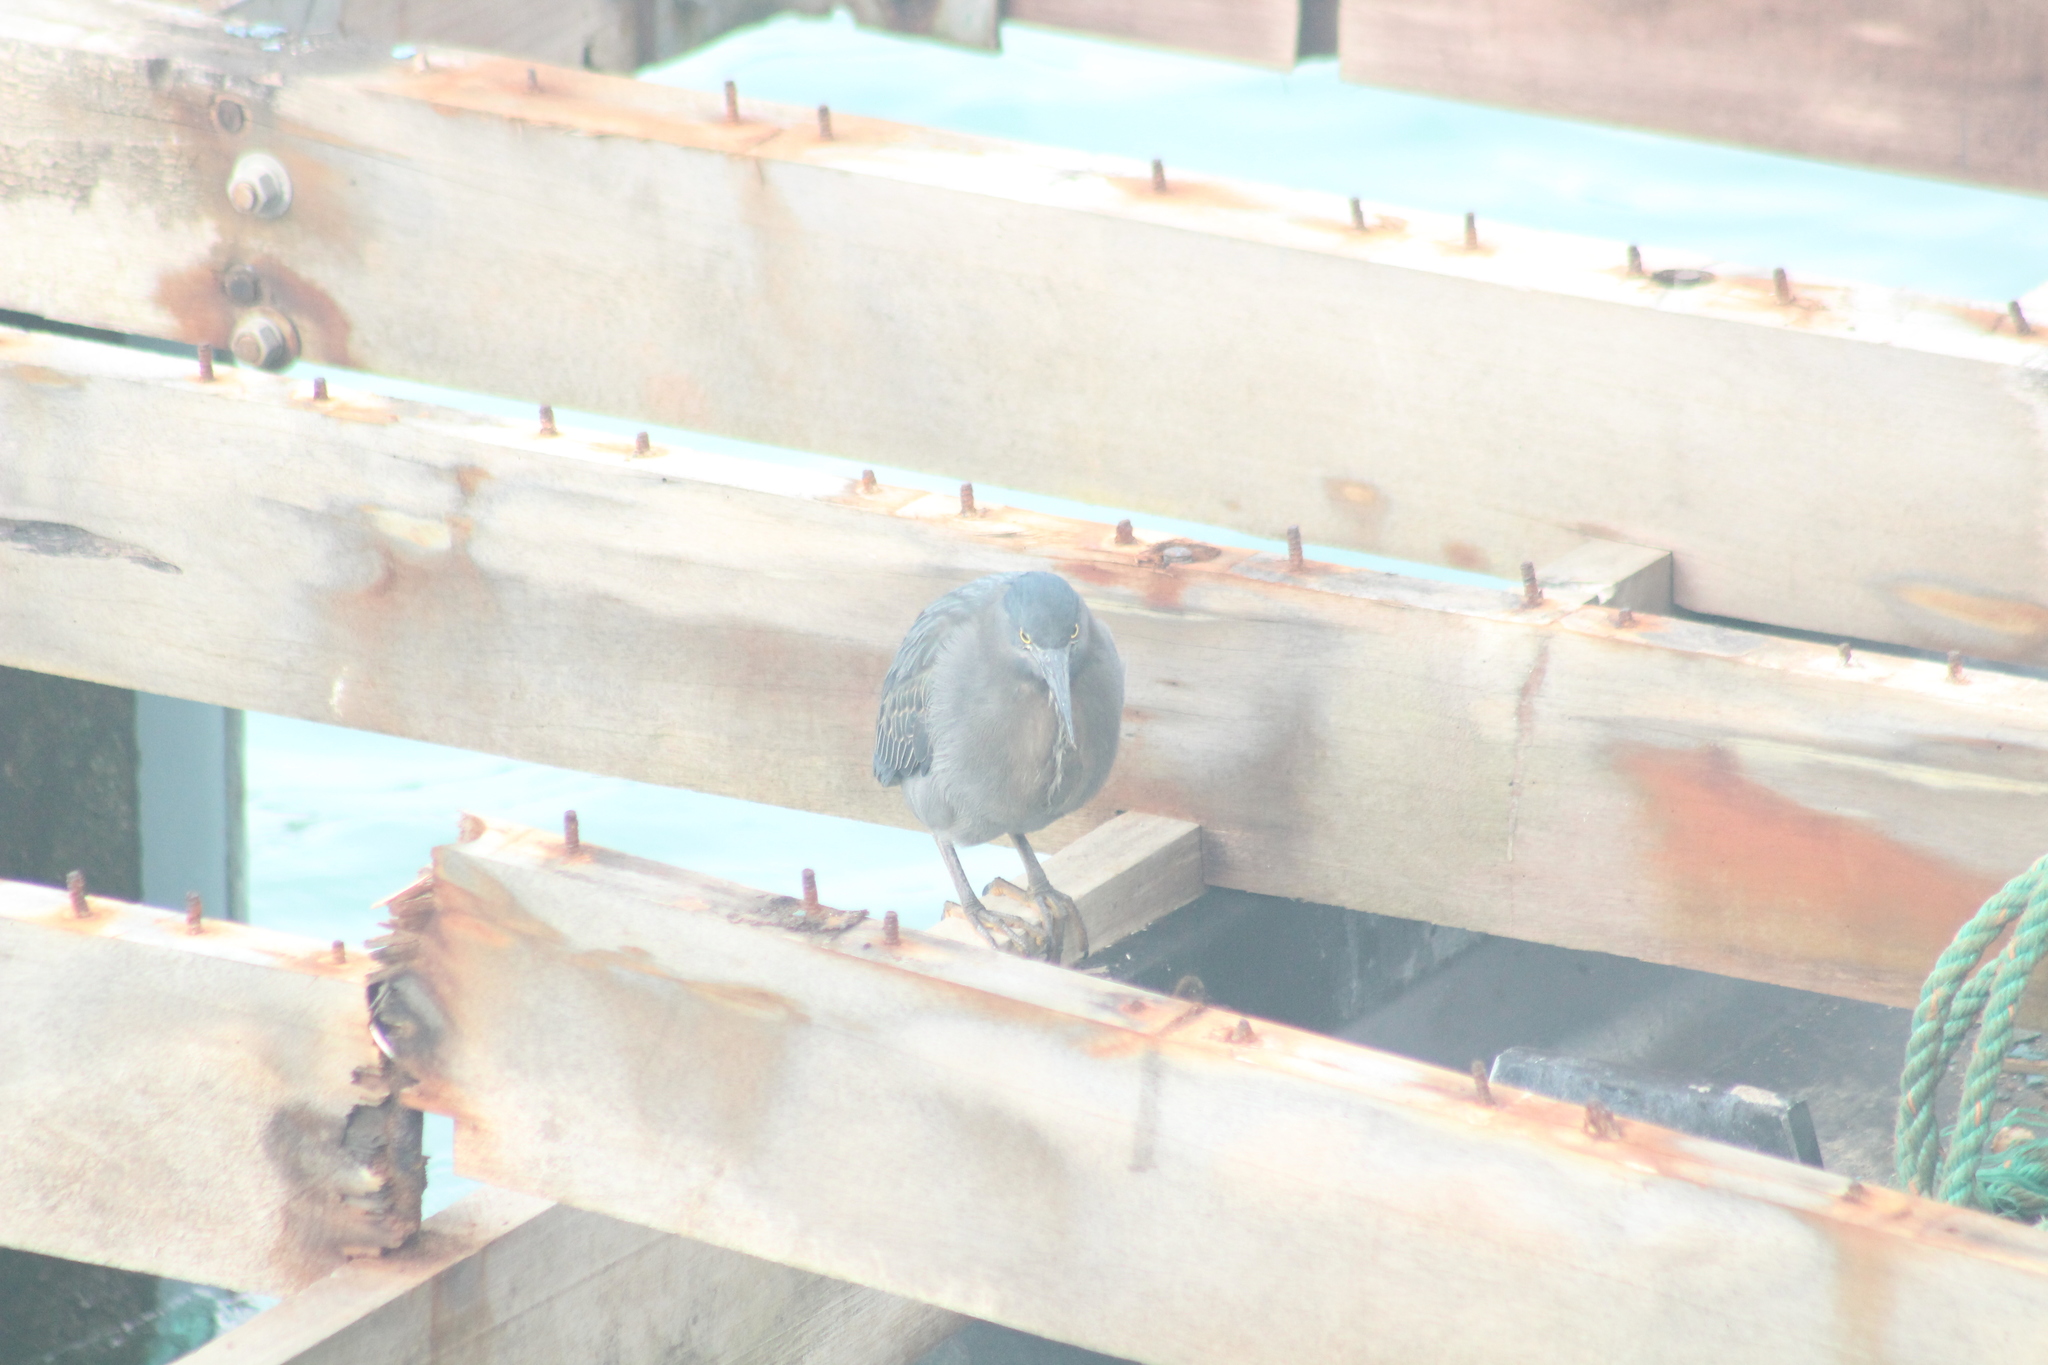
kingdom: Animalia
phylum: Chordata
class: Aves
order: Pelecaniformes
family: Ardeidae
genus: Butorides
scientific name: Butorides striata
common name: Striated heron
